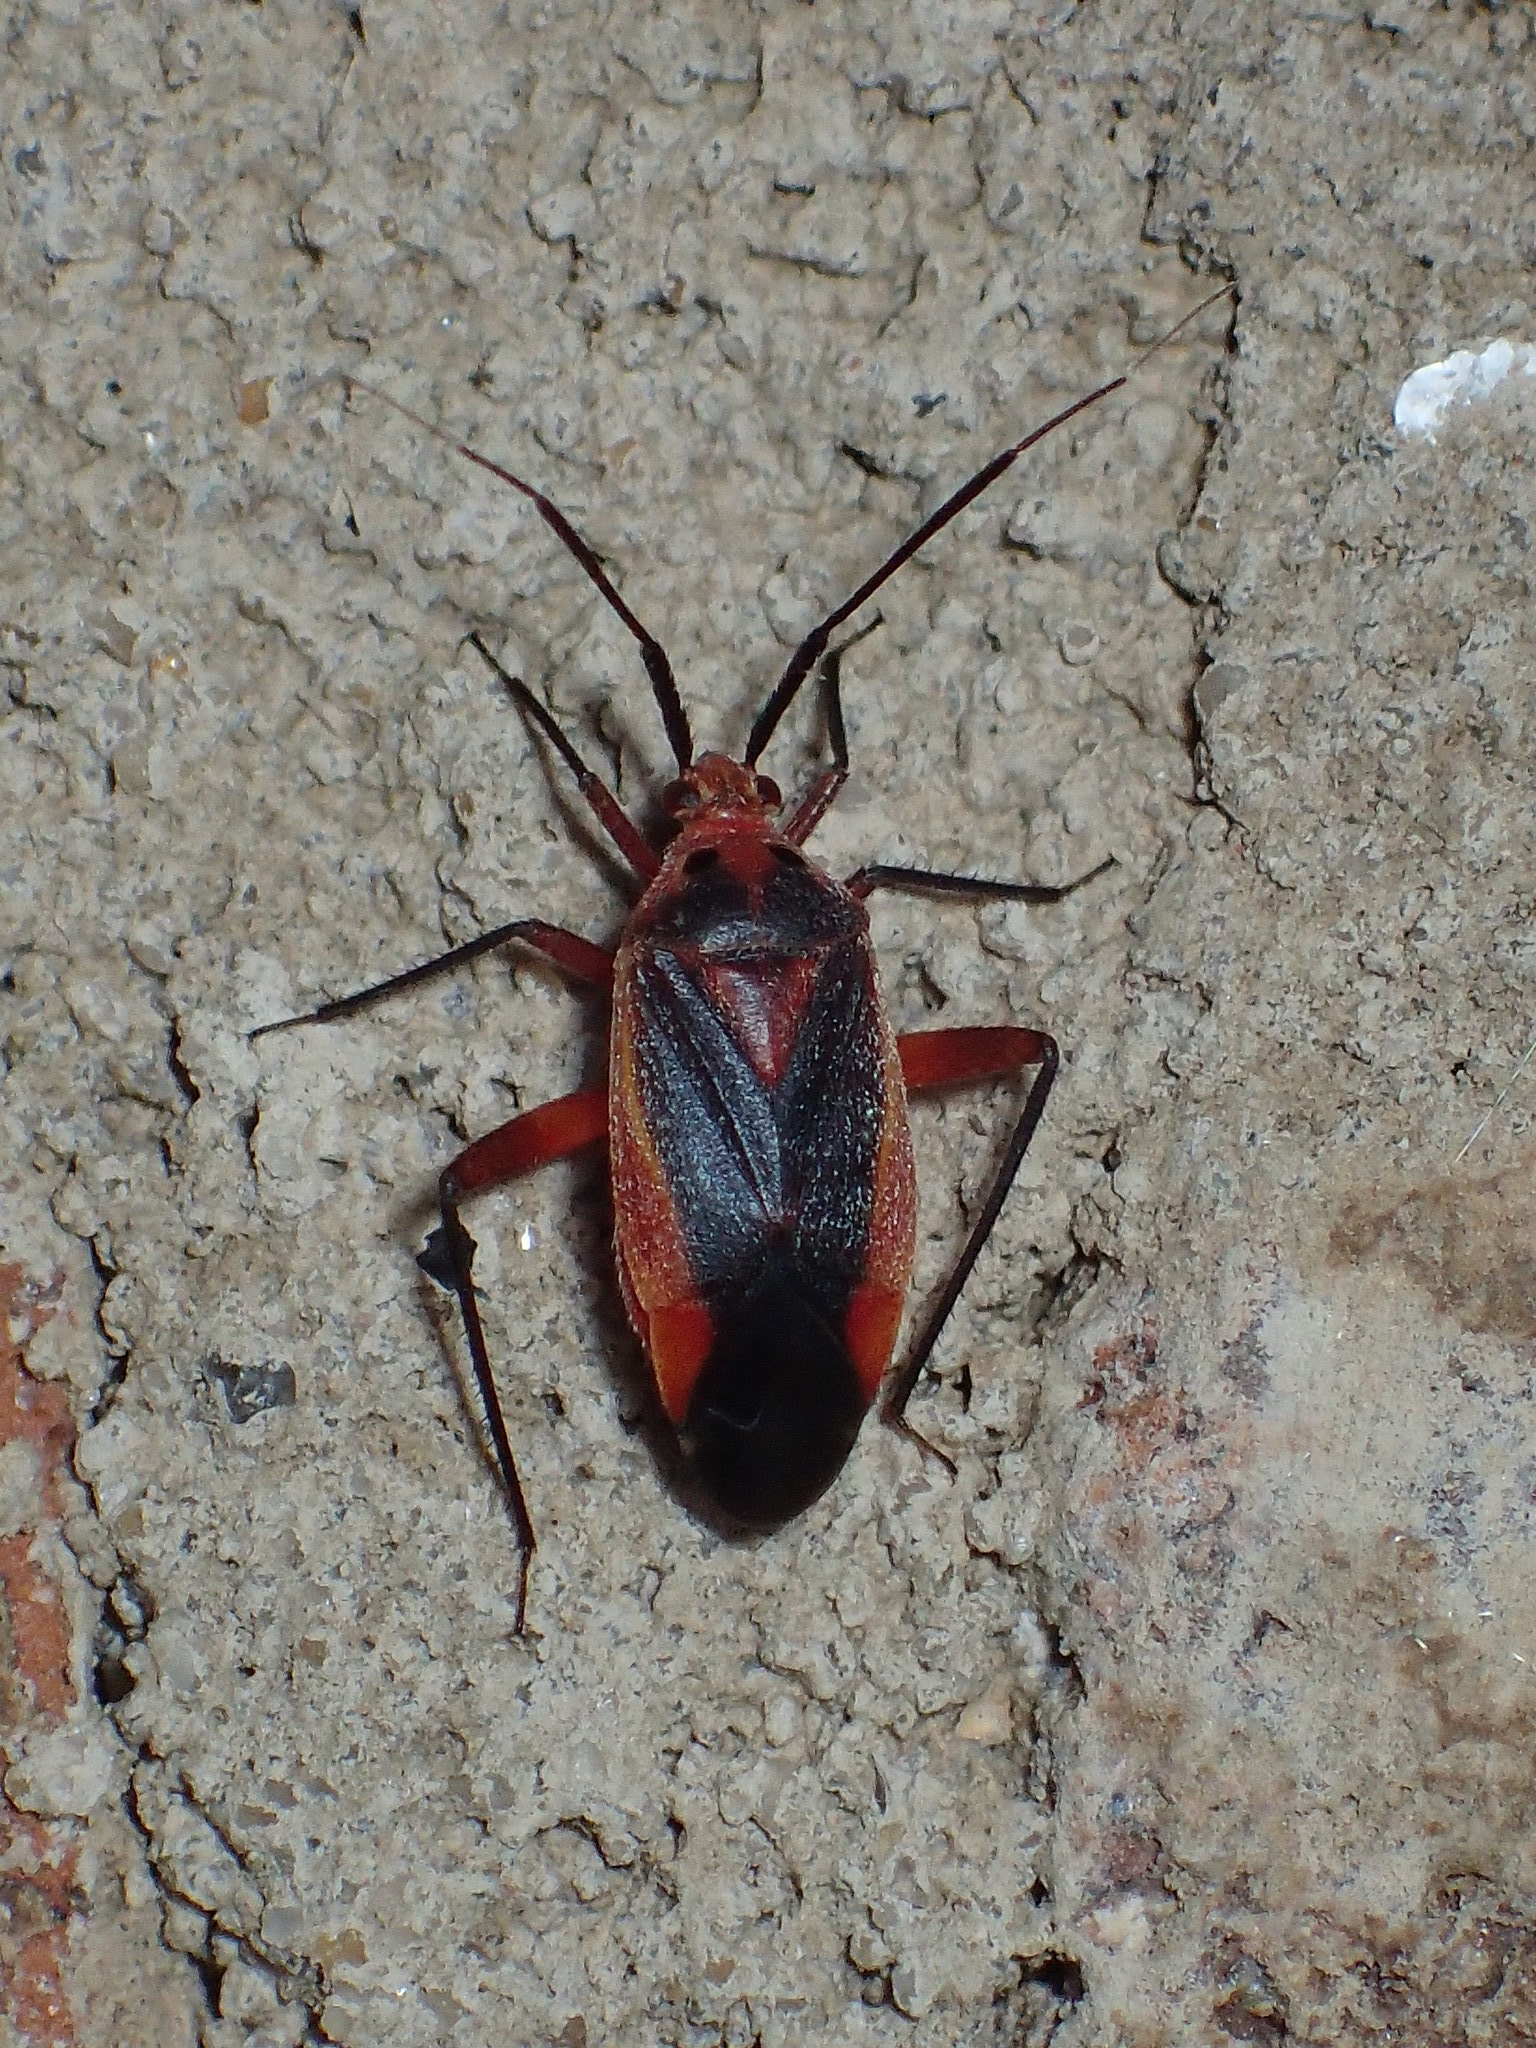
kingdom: Animalia
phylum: Arthropoda
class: Insecta
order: Hemiptera
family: Miridae
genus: Taedia
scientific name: Taedia johnstoni
